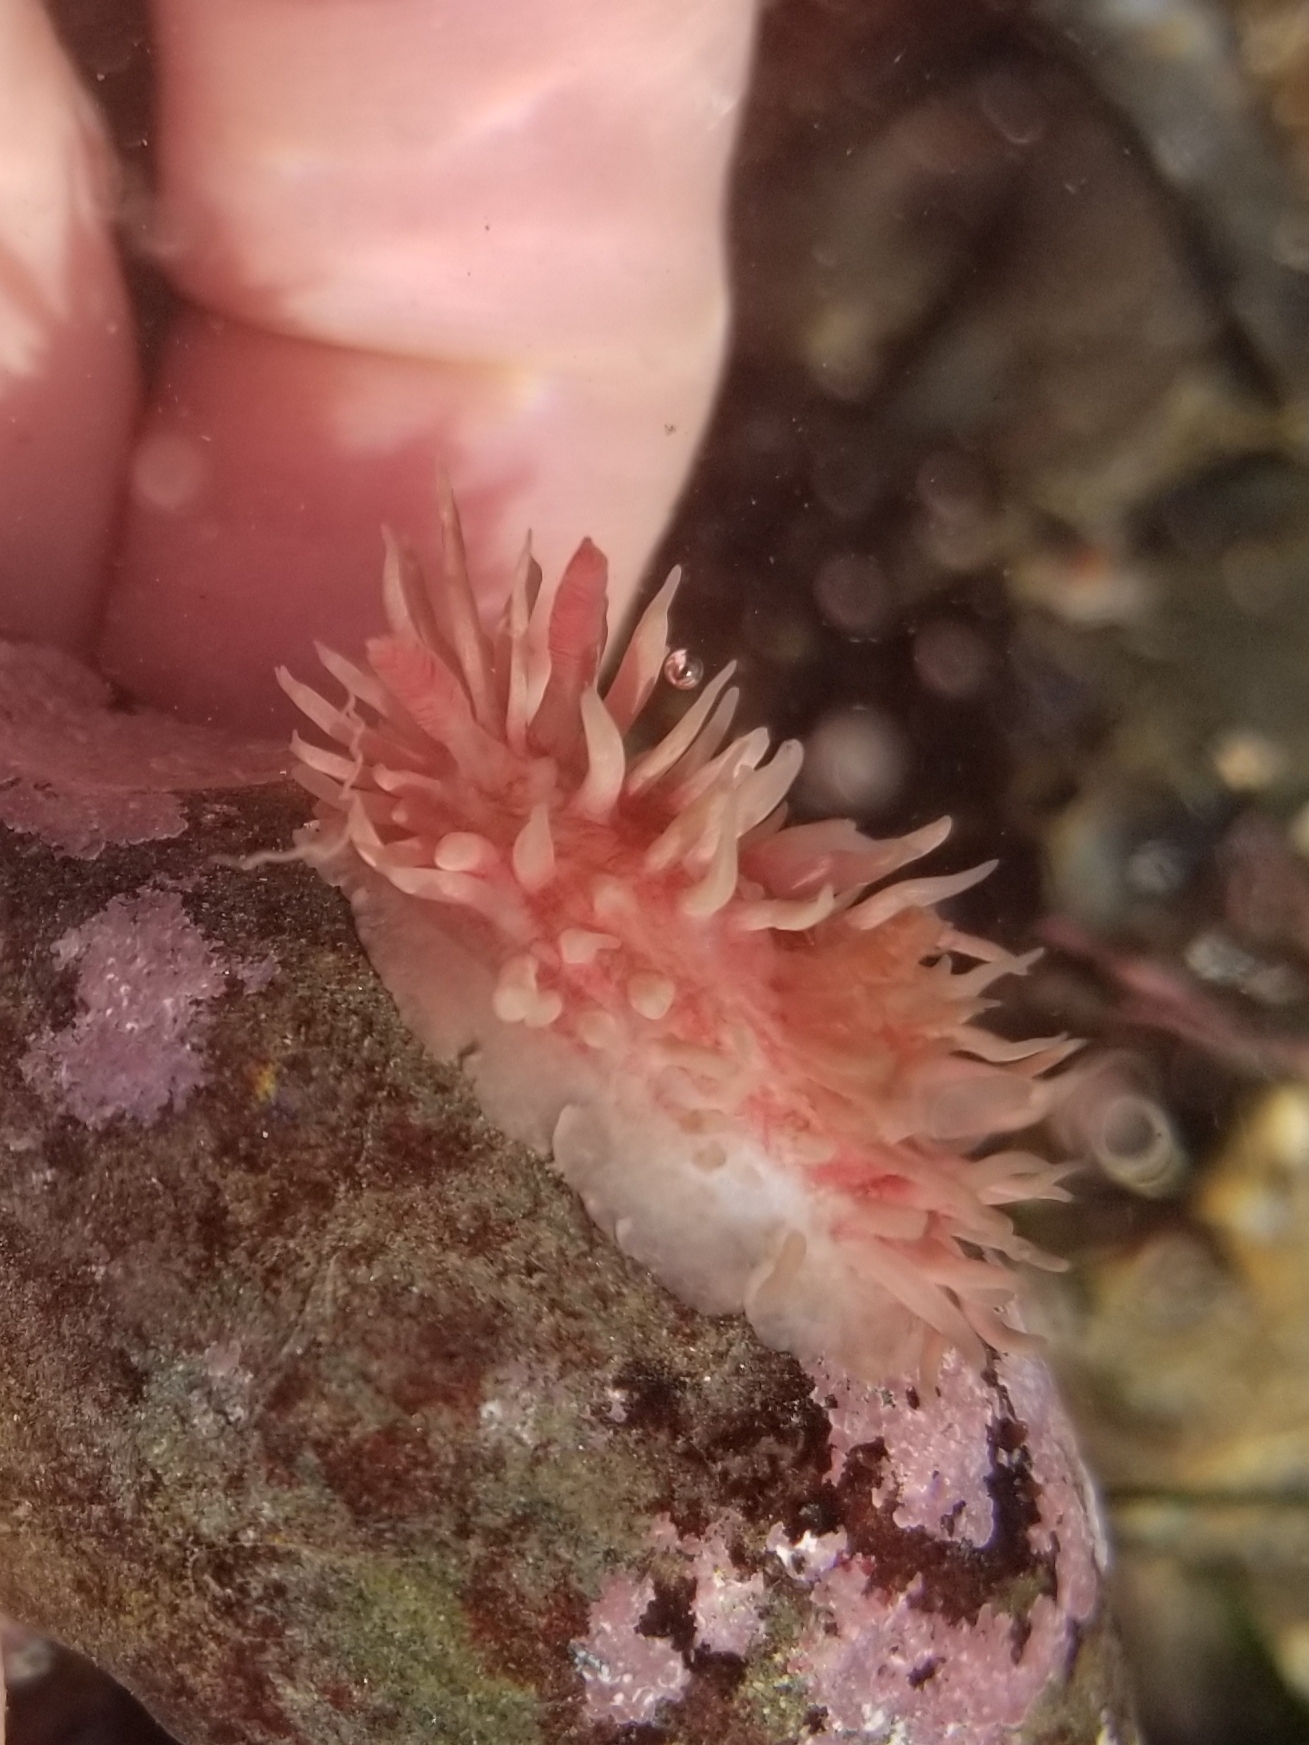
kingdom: Animalia
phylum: Mollusca
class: Gastropoda
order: Nudibranchia
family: Goniodorididae
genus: Okenia
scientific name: Okenia
